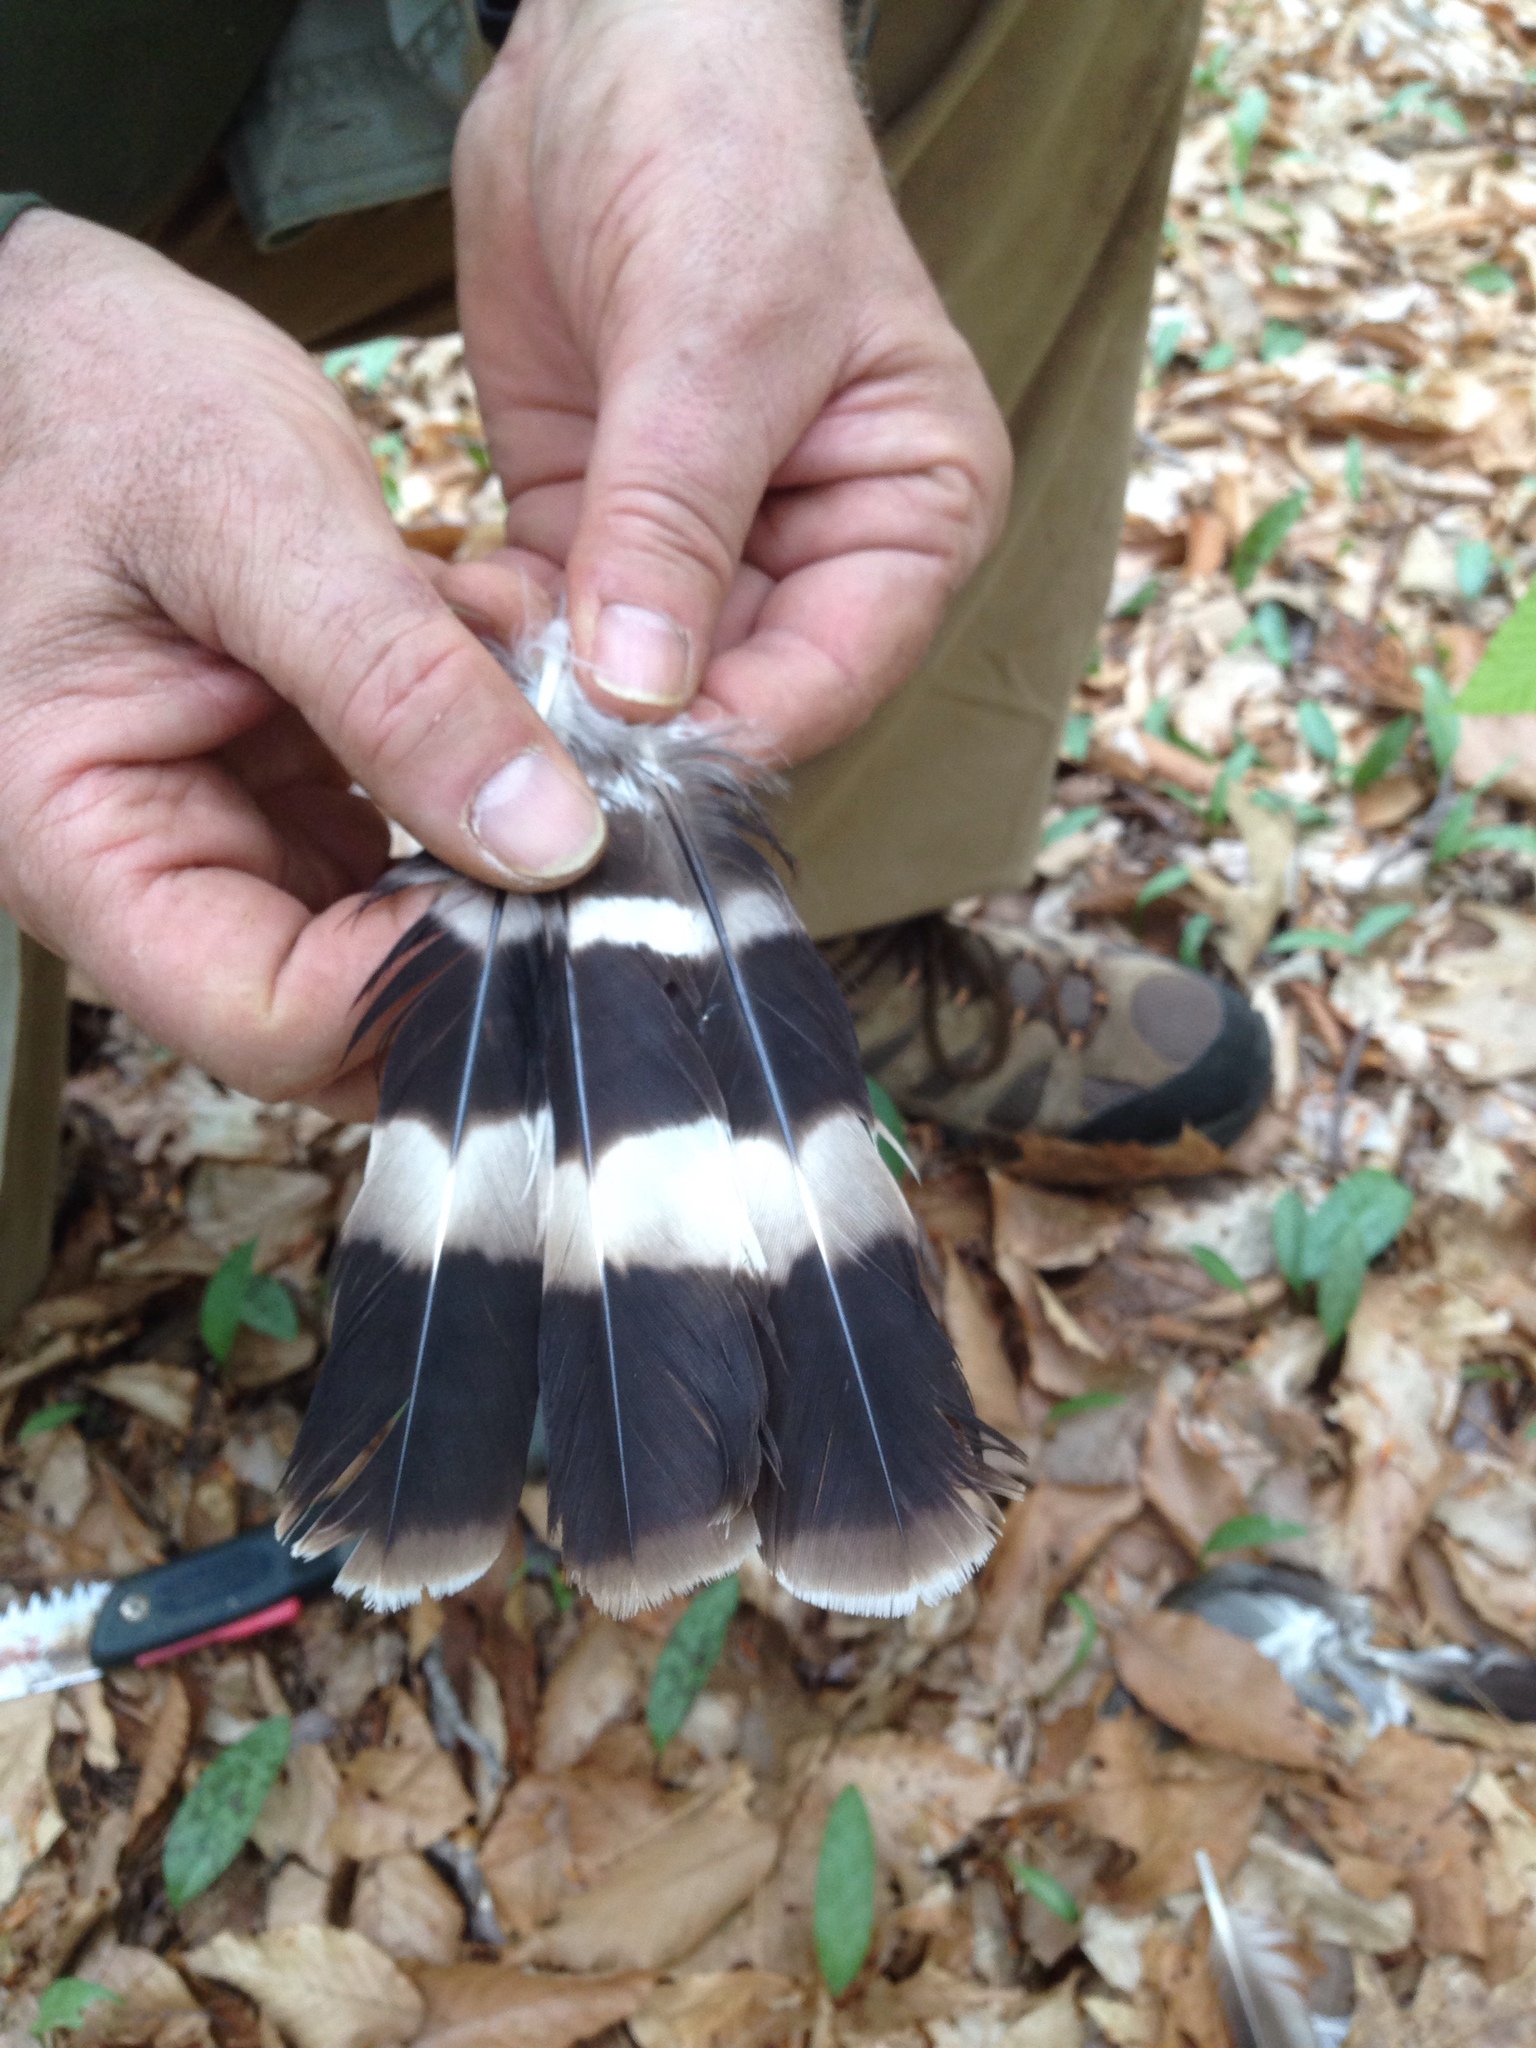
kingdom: Animalia
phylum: Chordata
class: Aves
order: Accipitriformes
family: Accipitridae
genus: Buteo
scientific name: Buteo platypterus
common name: Broad-winged hawk
